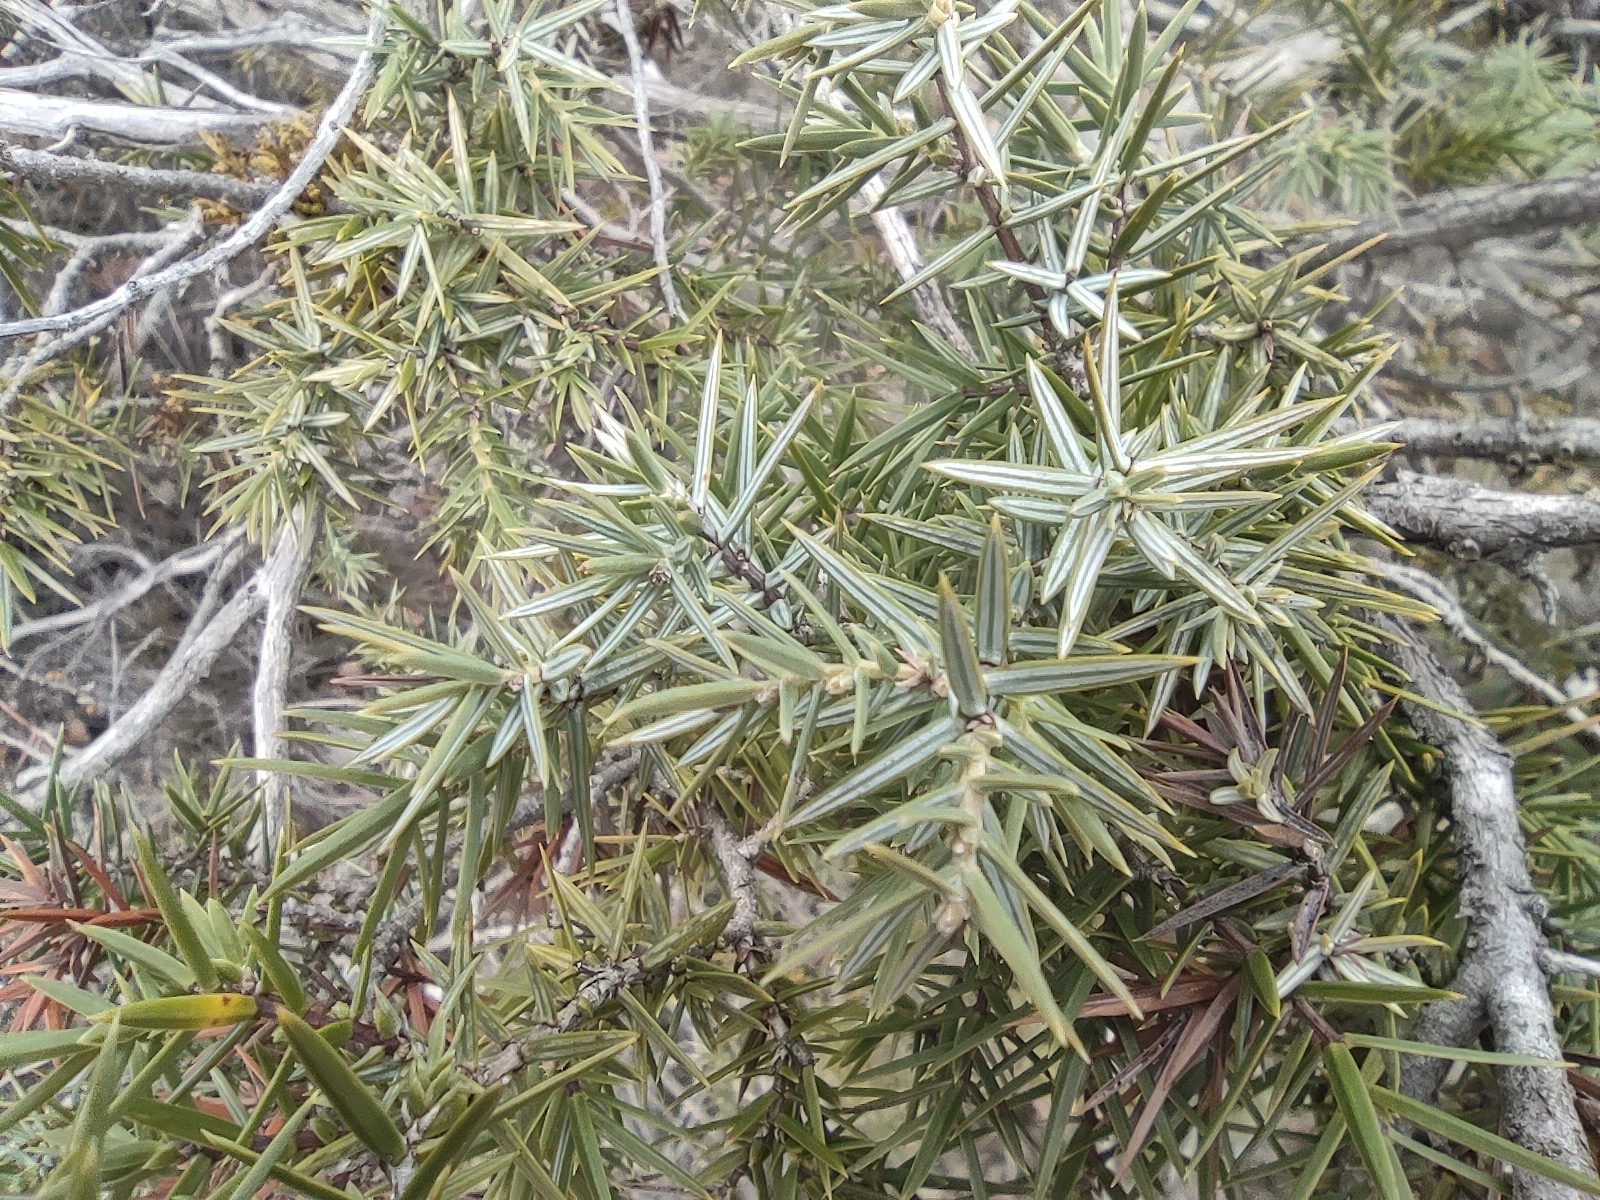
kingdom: Plantae
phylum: Tracheophyta
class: Pinopsida
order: Pinales
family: Cupressaceae
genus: Juniperus
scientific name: Juniperus oxycedrus
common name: Prickly juniper
